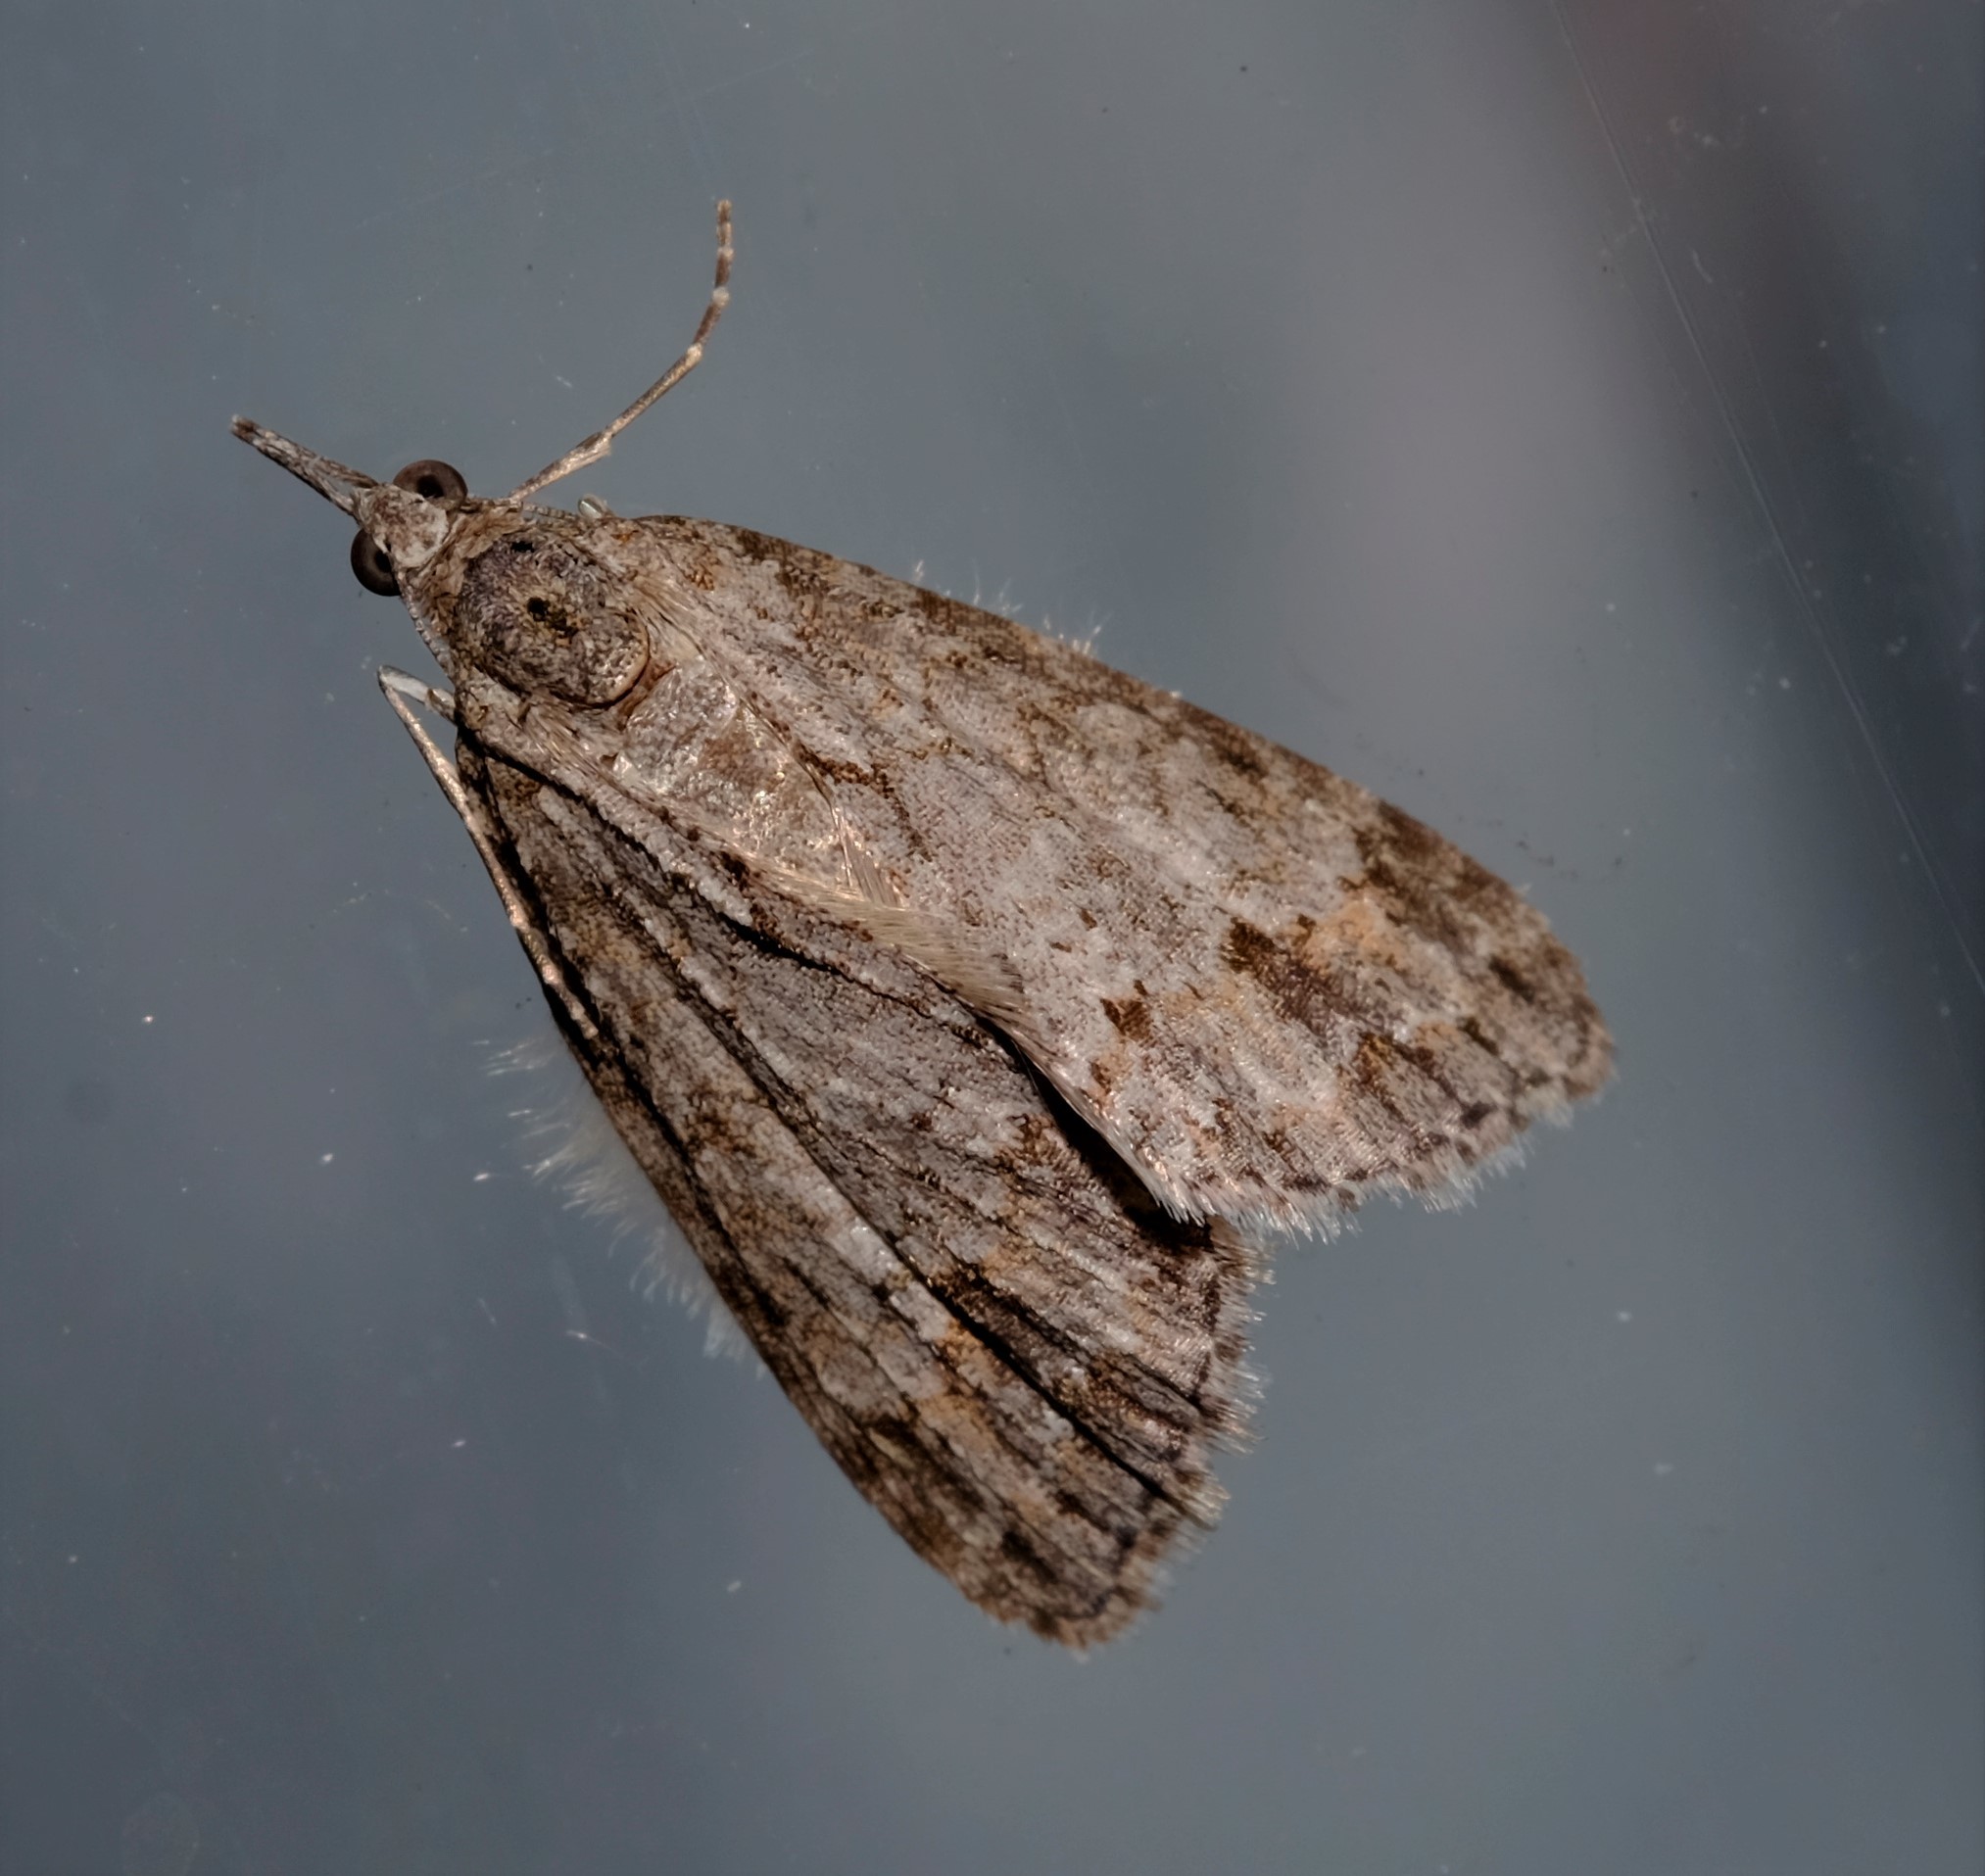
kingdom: Animalia
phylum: Arthropoda
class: Insecta
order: Lepidoptera
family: Geometridae
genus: Microdes
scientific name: Microdes villosata
